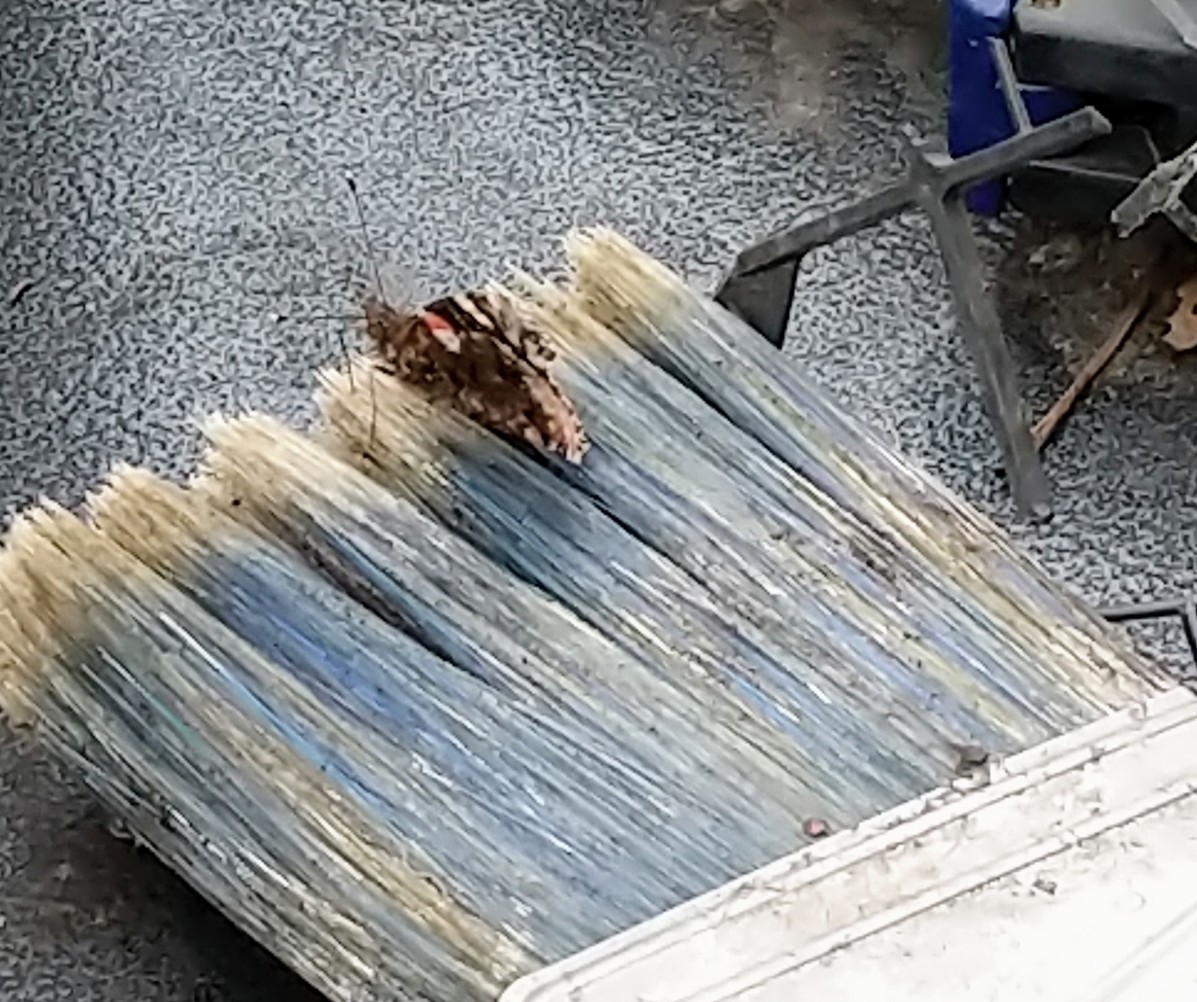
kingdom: Animalia
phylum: Arthropoda
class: Insecta
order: Lepidoptera
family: Nymphalidae
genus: Vanessa
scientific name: Vanessa atalanta
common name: Red admiral
